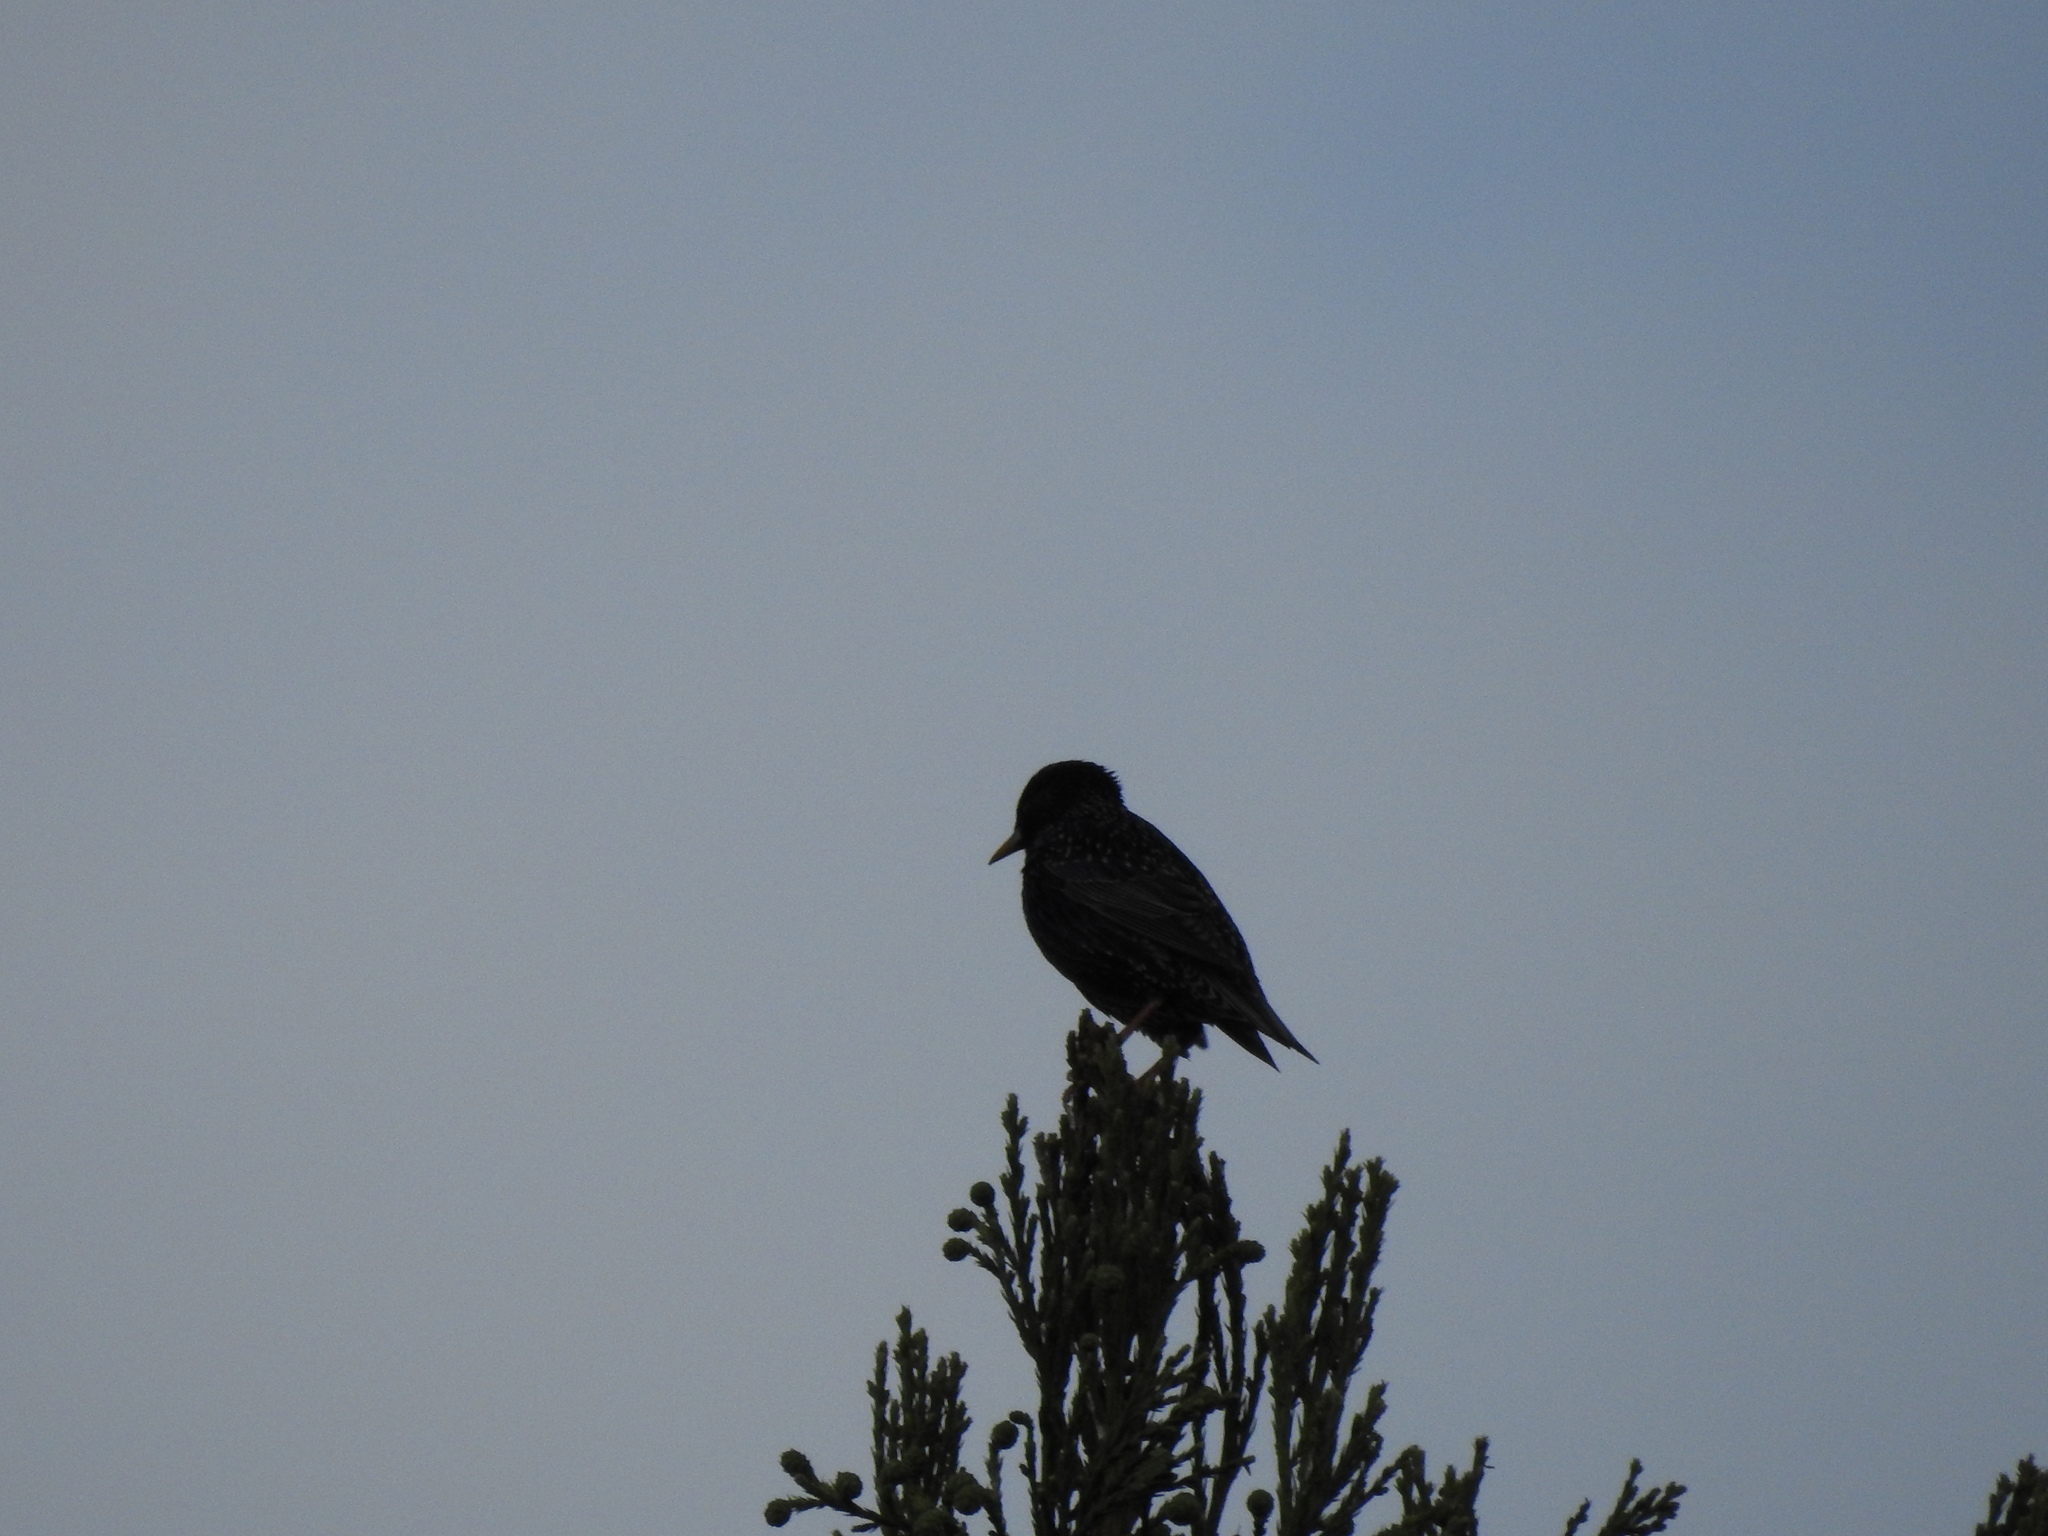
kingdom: Animalia
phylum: Chordata
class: Aves
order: Passeriformes
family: Sturnidae
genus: Sturnus
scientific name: Sturnus vulgaris
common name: Common starling
